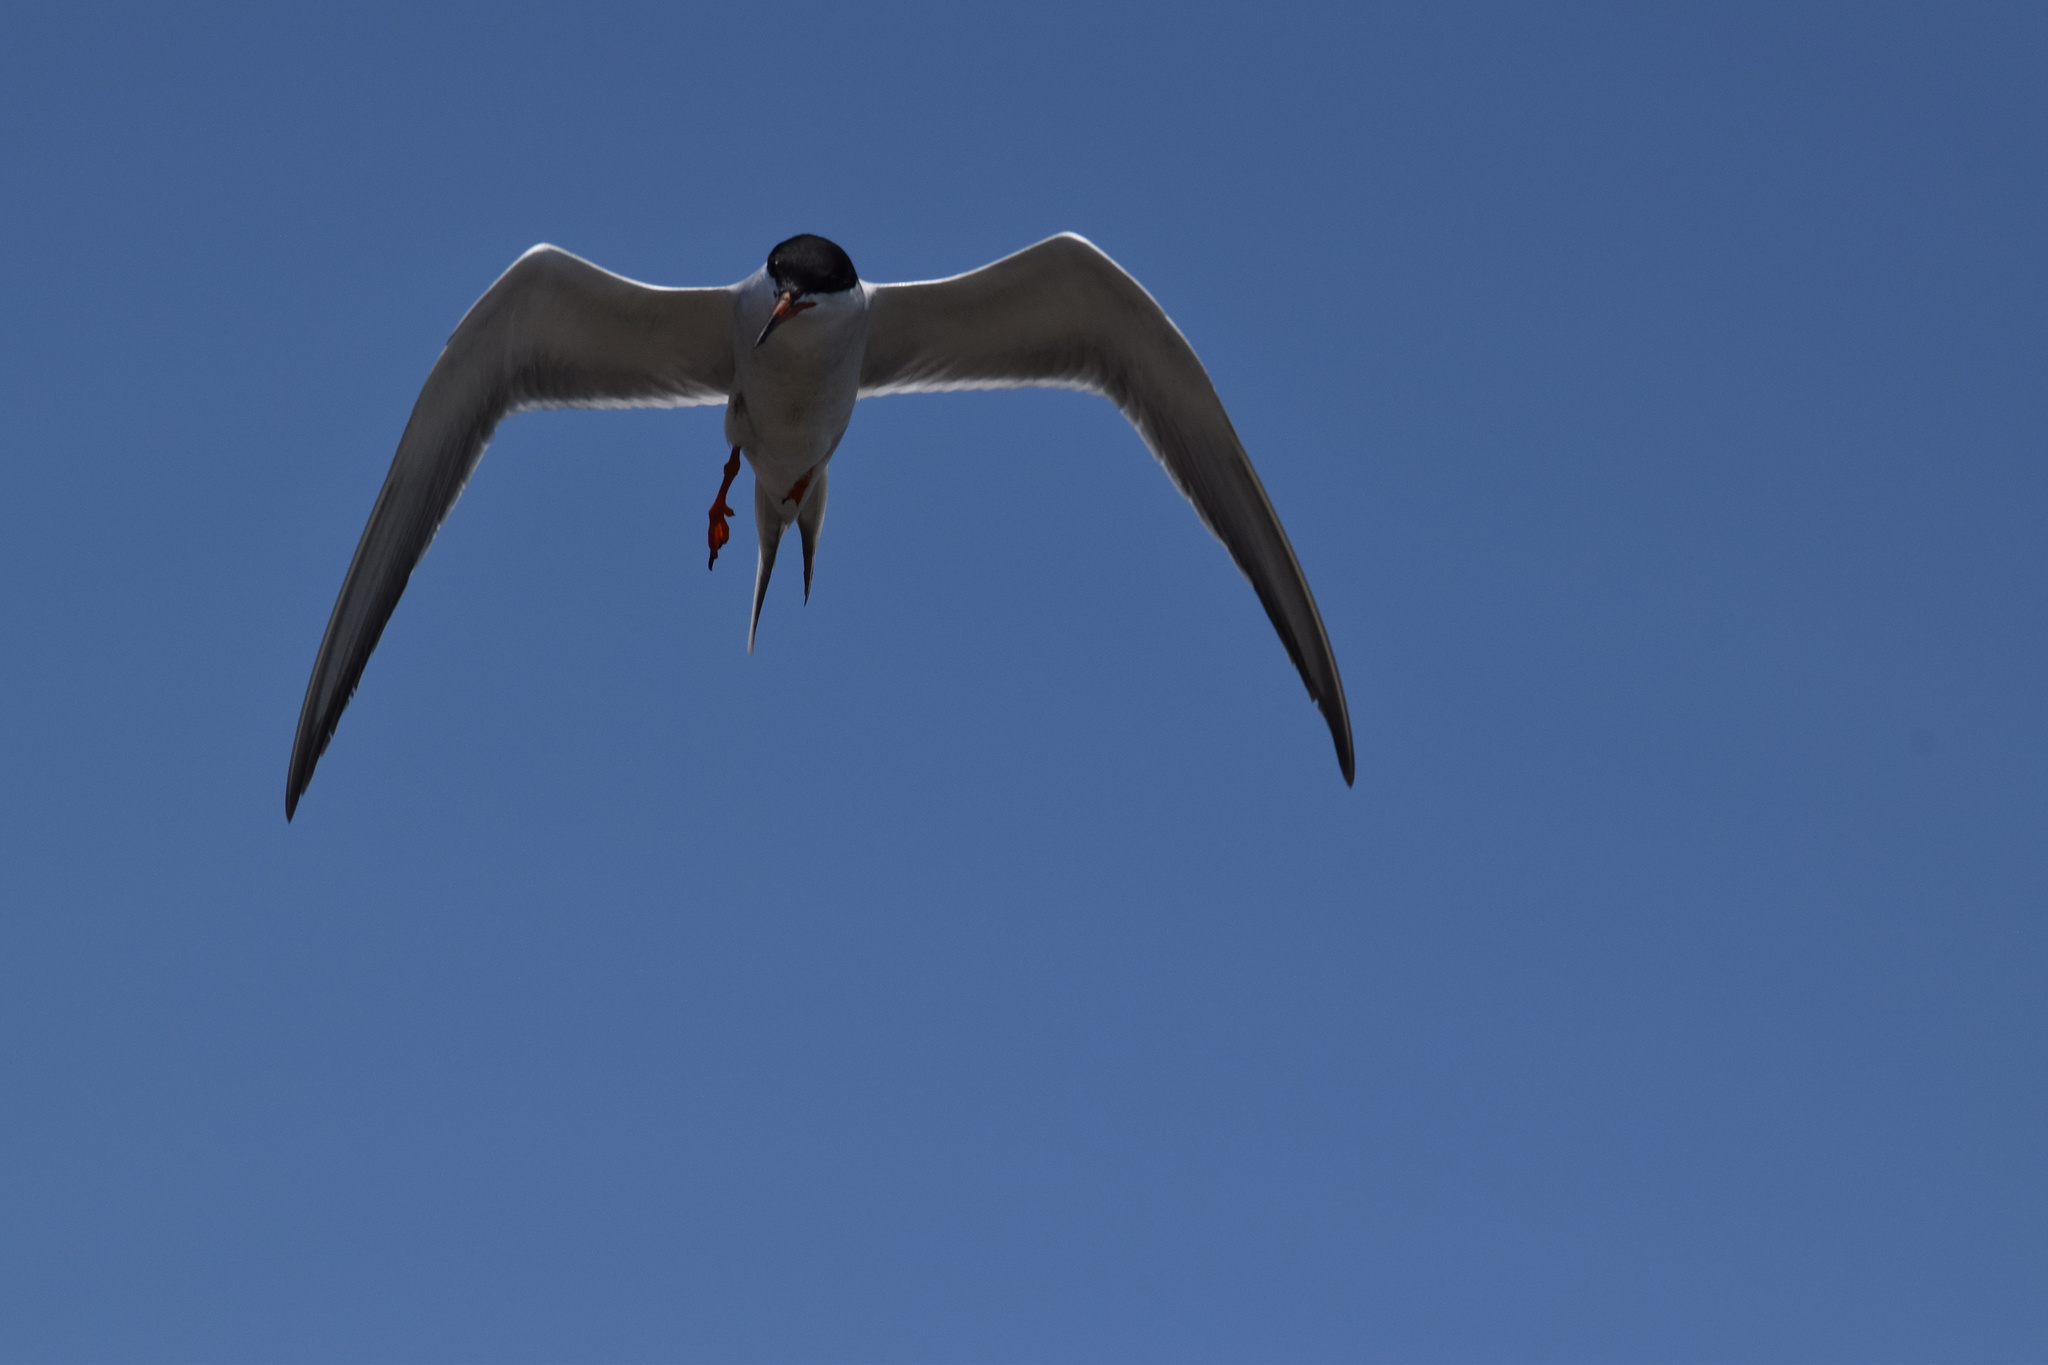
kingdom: Animalia
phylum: Chordata
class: Aves
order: Charadriiformes
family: Laridae
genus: Sterna
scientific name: Sterna forsteri
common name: Forster's tern
